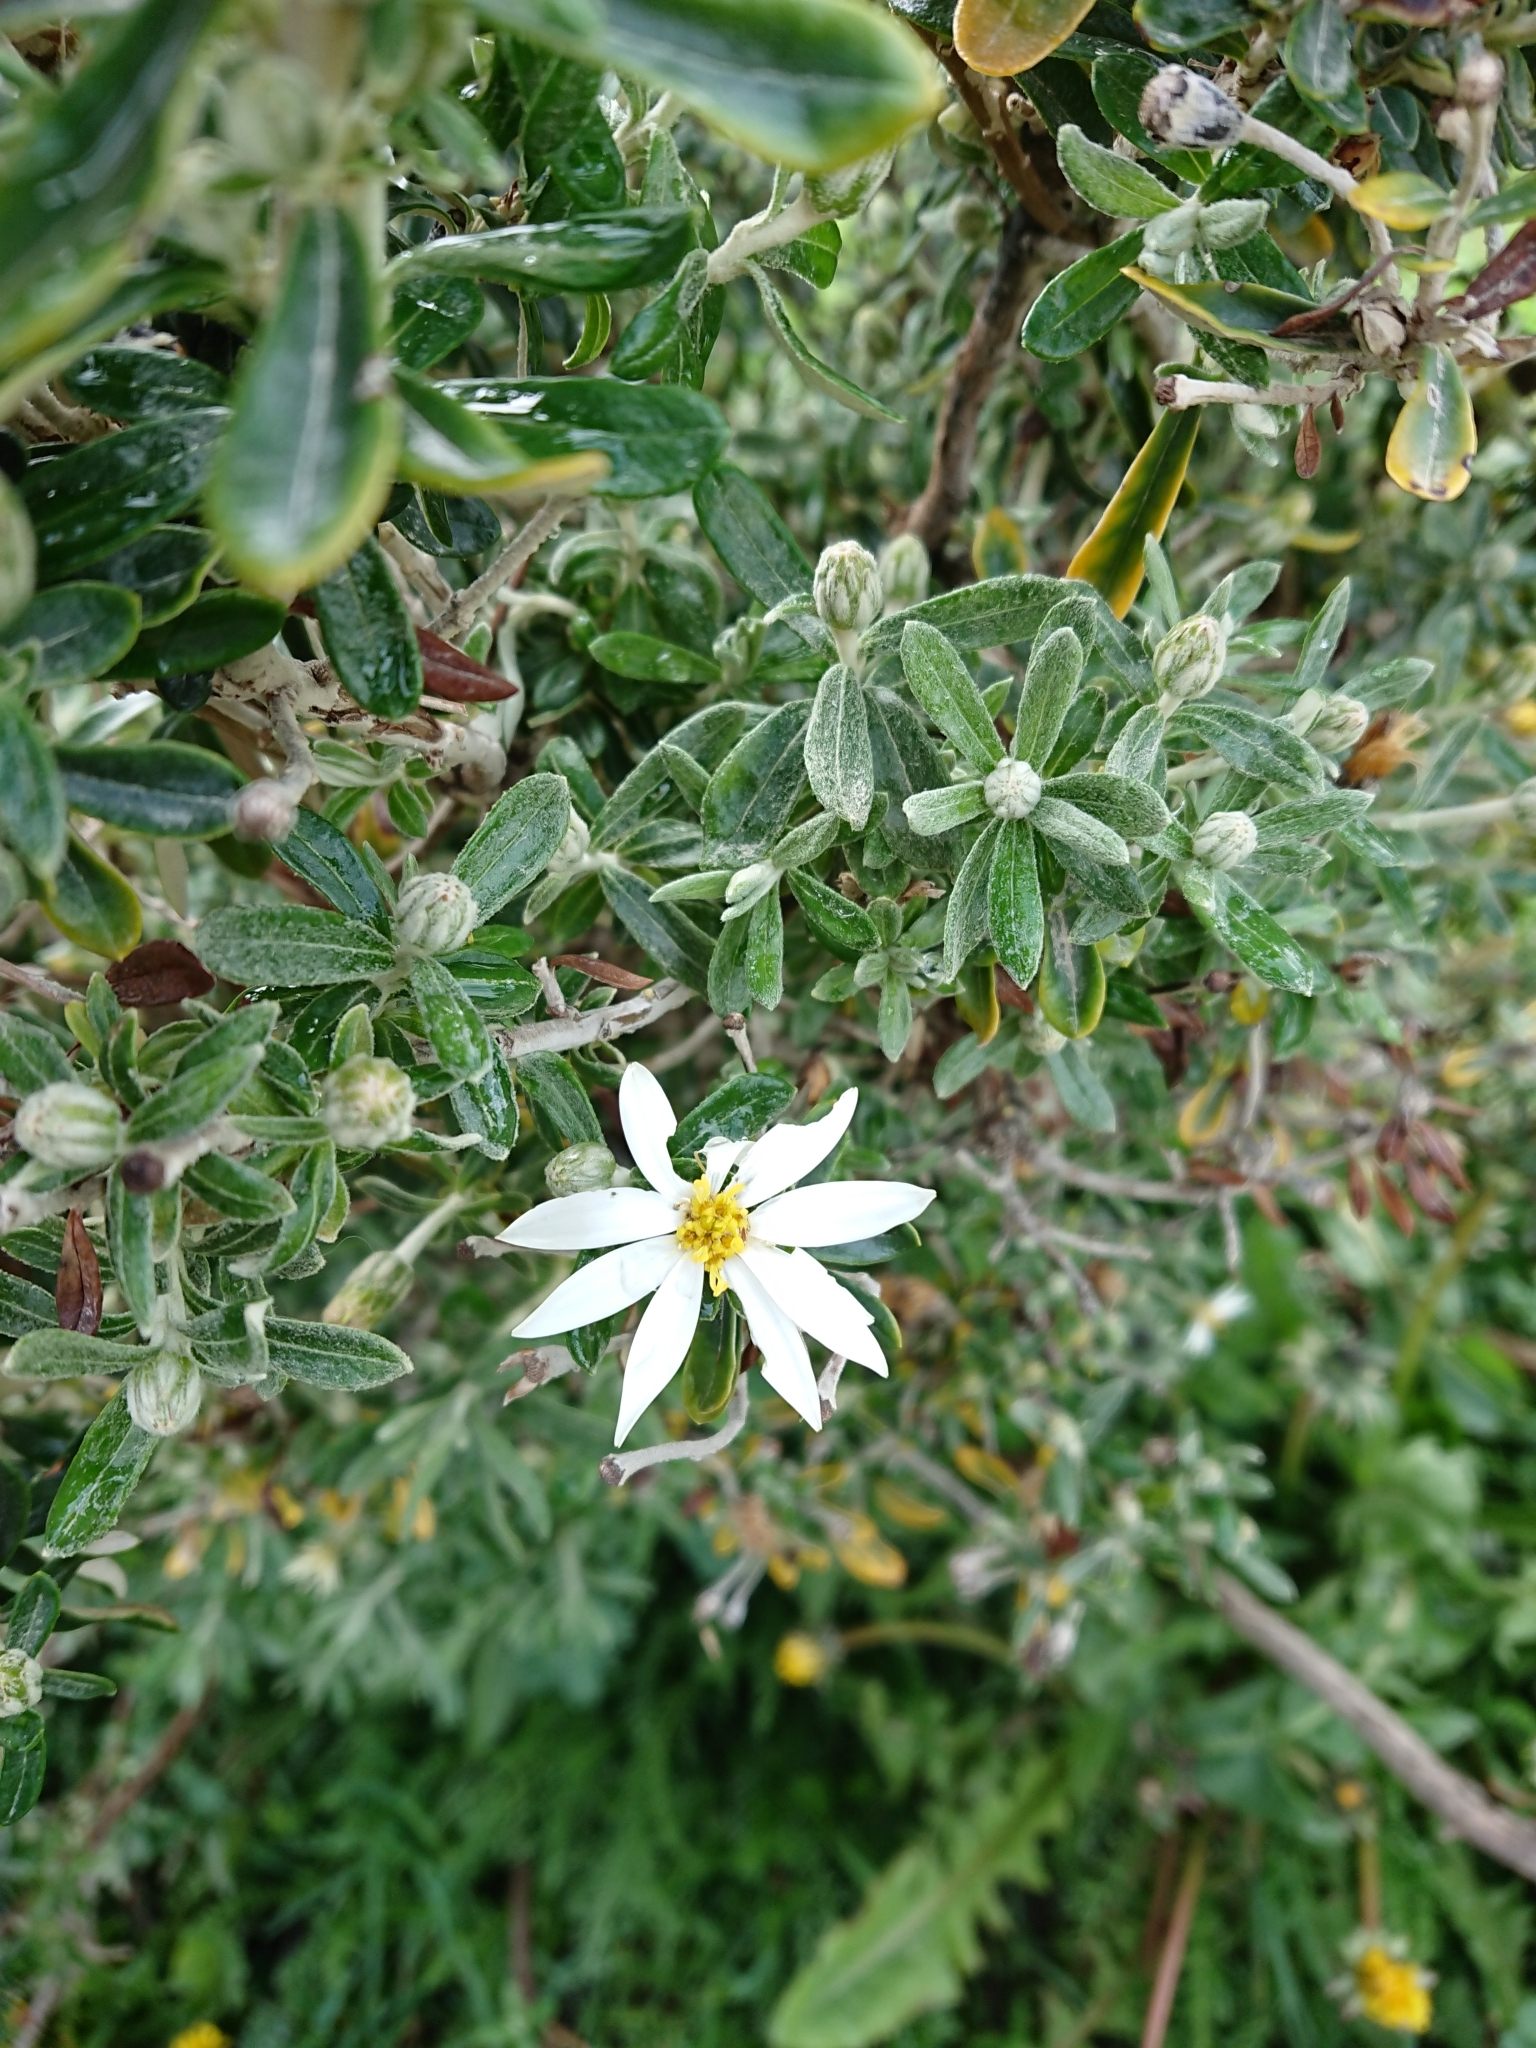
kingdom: Plantae
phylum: Tracheophyta
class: Magnoliopsida
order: Asterales
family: Asteraceae
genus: Chiliotrichum
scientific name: Chiliotrichum diffusum
